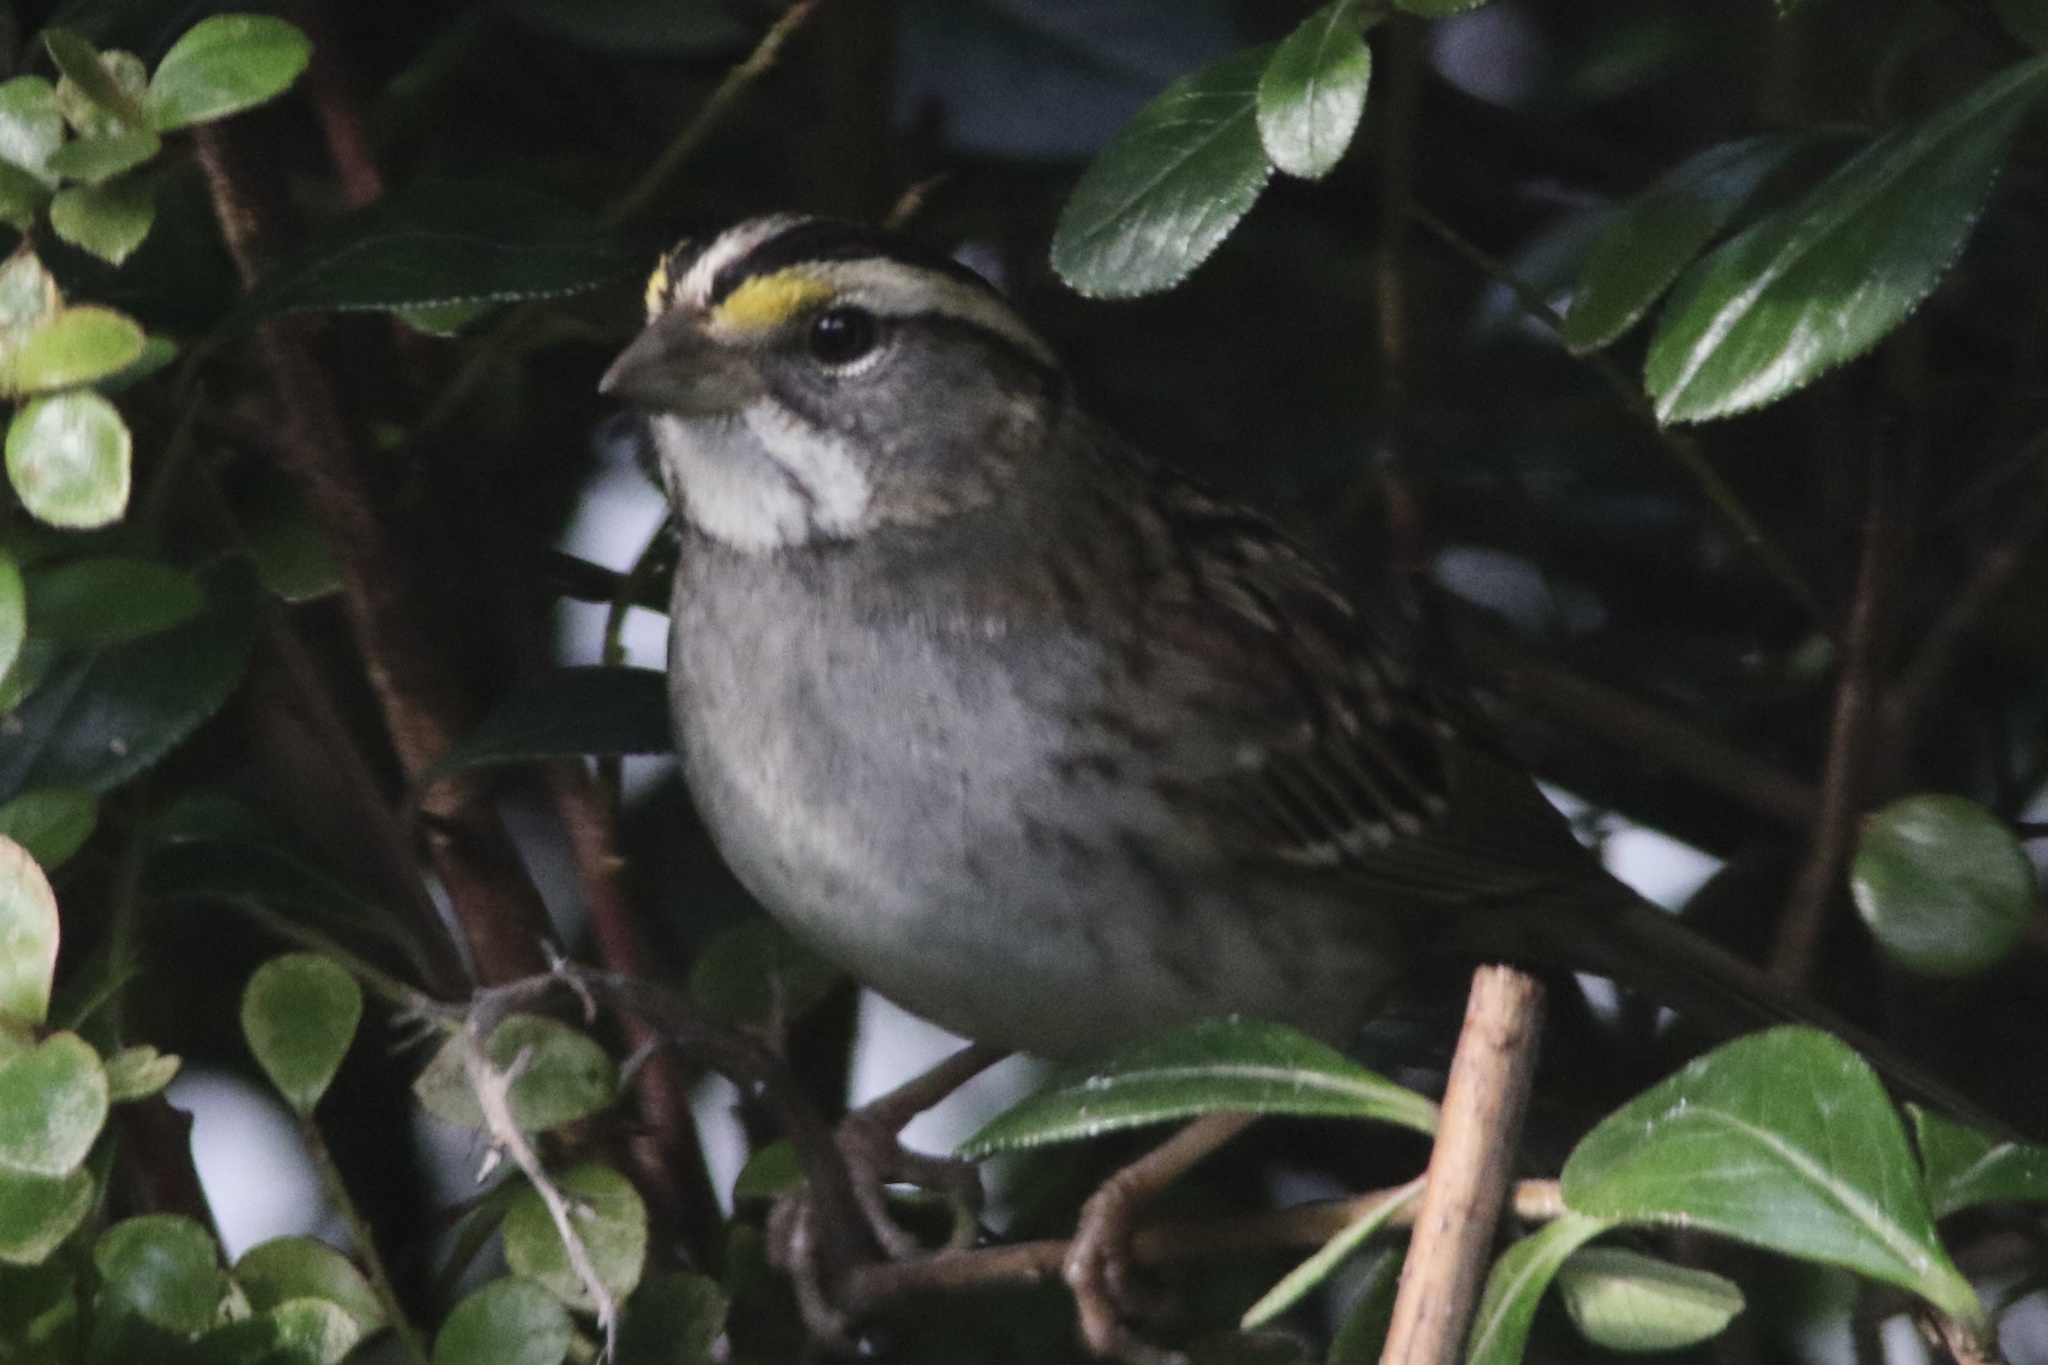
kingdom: Animalia
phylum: Chordata
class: Aves
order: Passeriformes
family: Passerellidae
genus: Zonotrichia
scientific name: Zonotrichia albicollis
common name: White-throated sparrow
